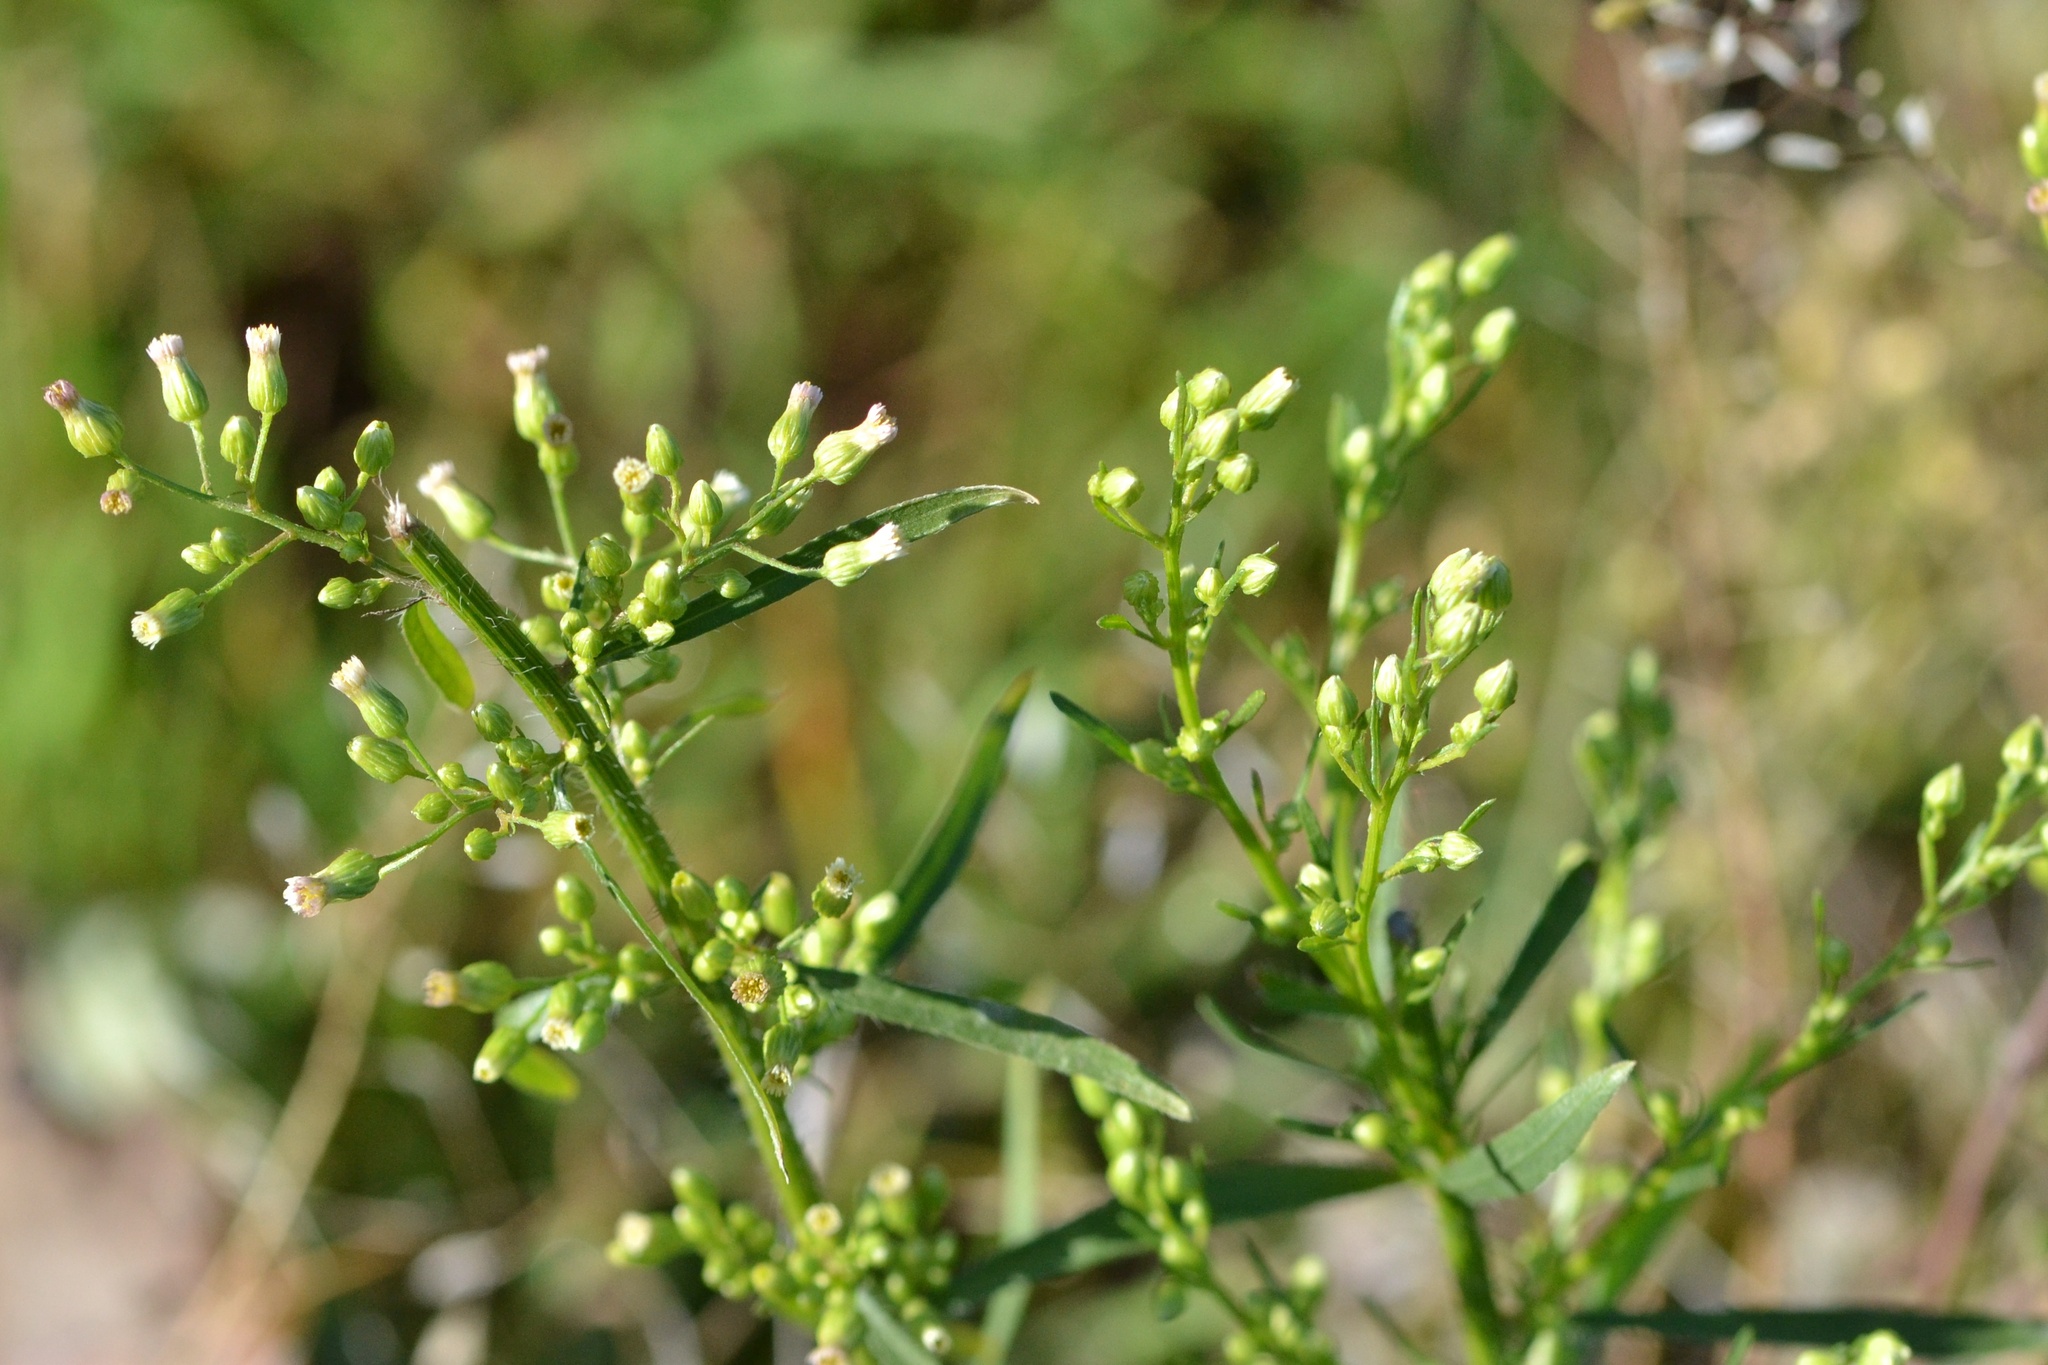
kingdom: Plantae
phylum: Tracheophyta
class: Magnoliopsida
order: Asterales
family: Asteraceae
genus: Erigeron
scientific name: Erigeron canadensis
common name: Canadian fleabane
